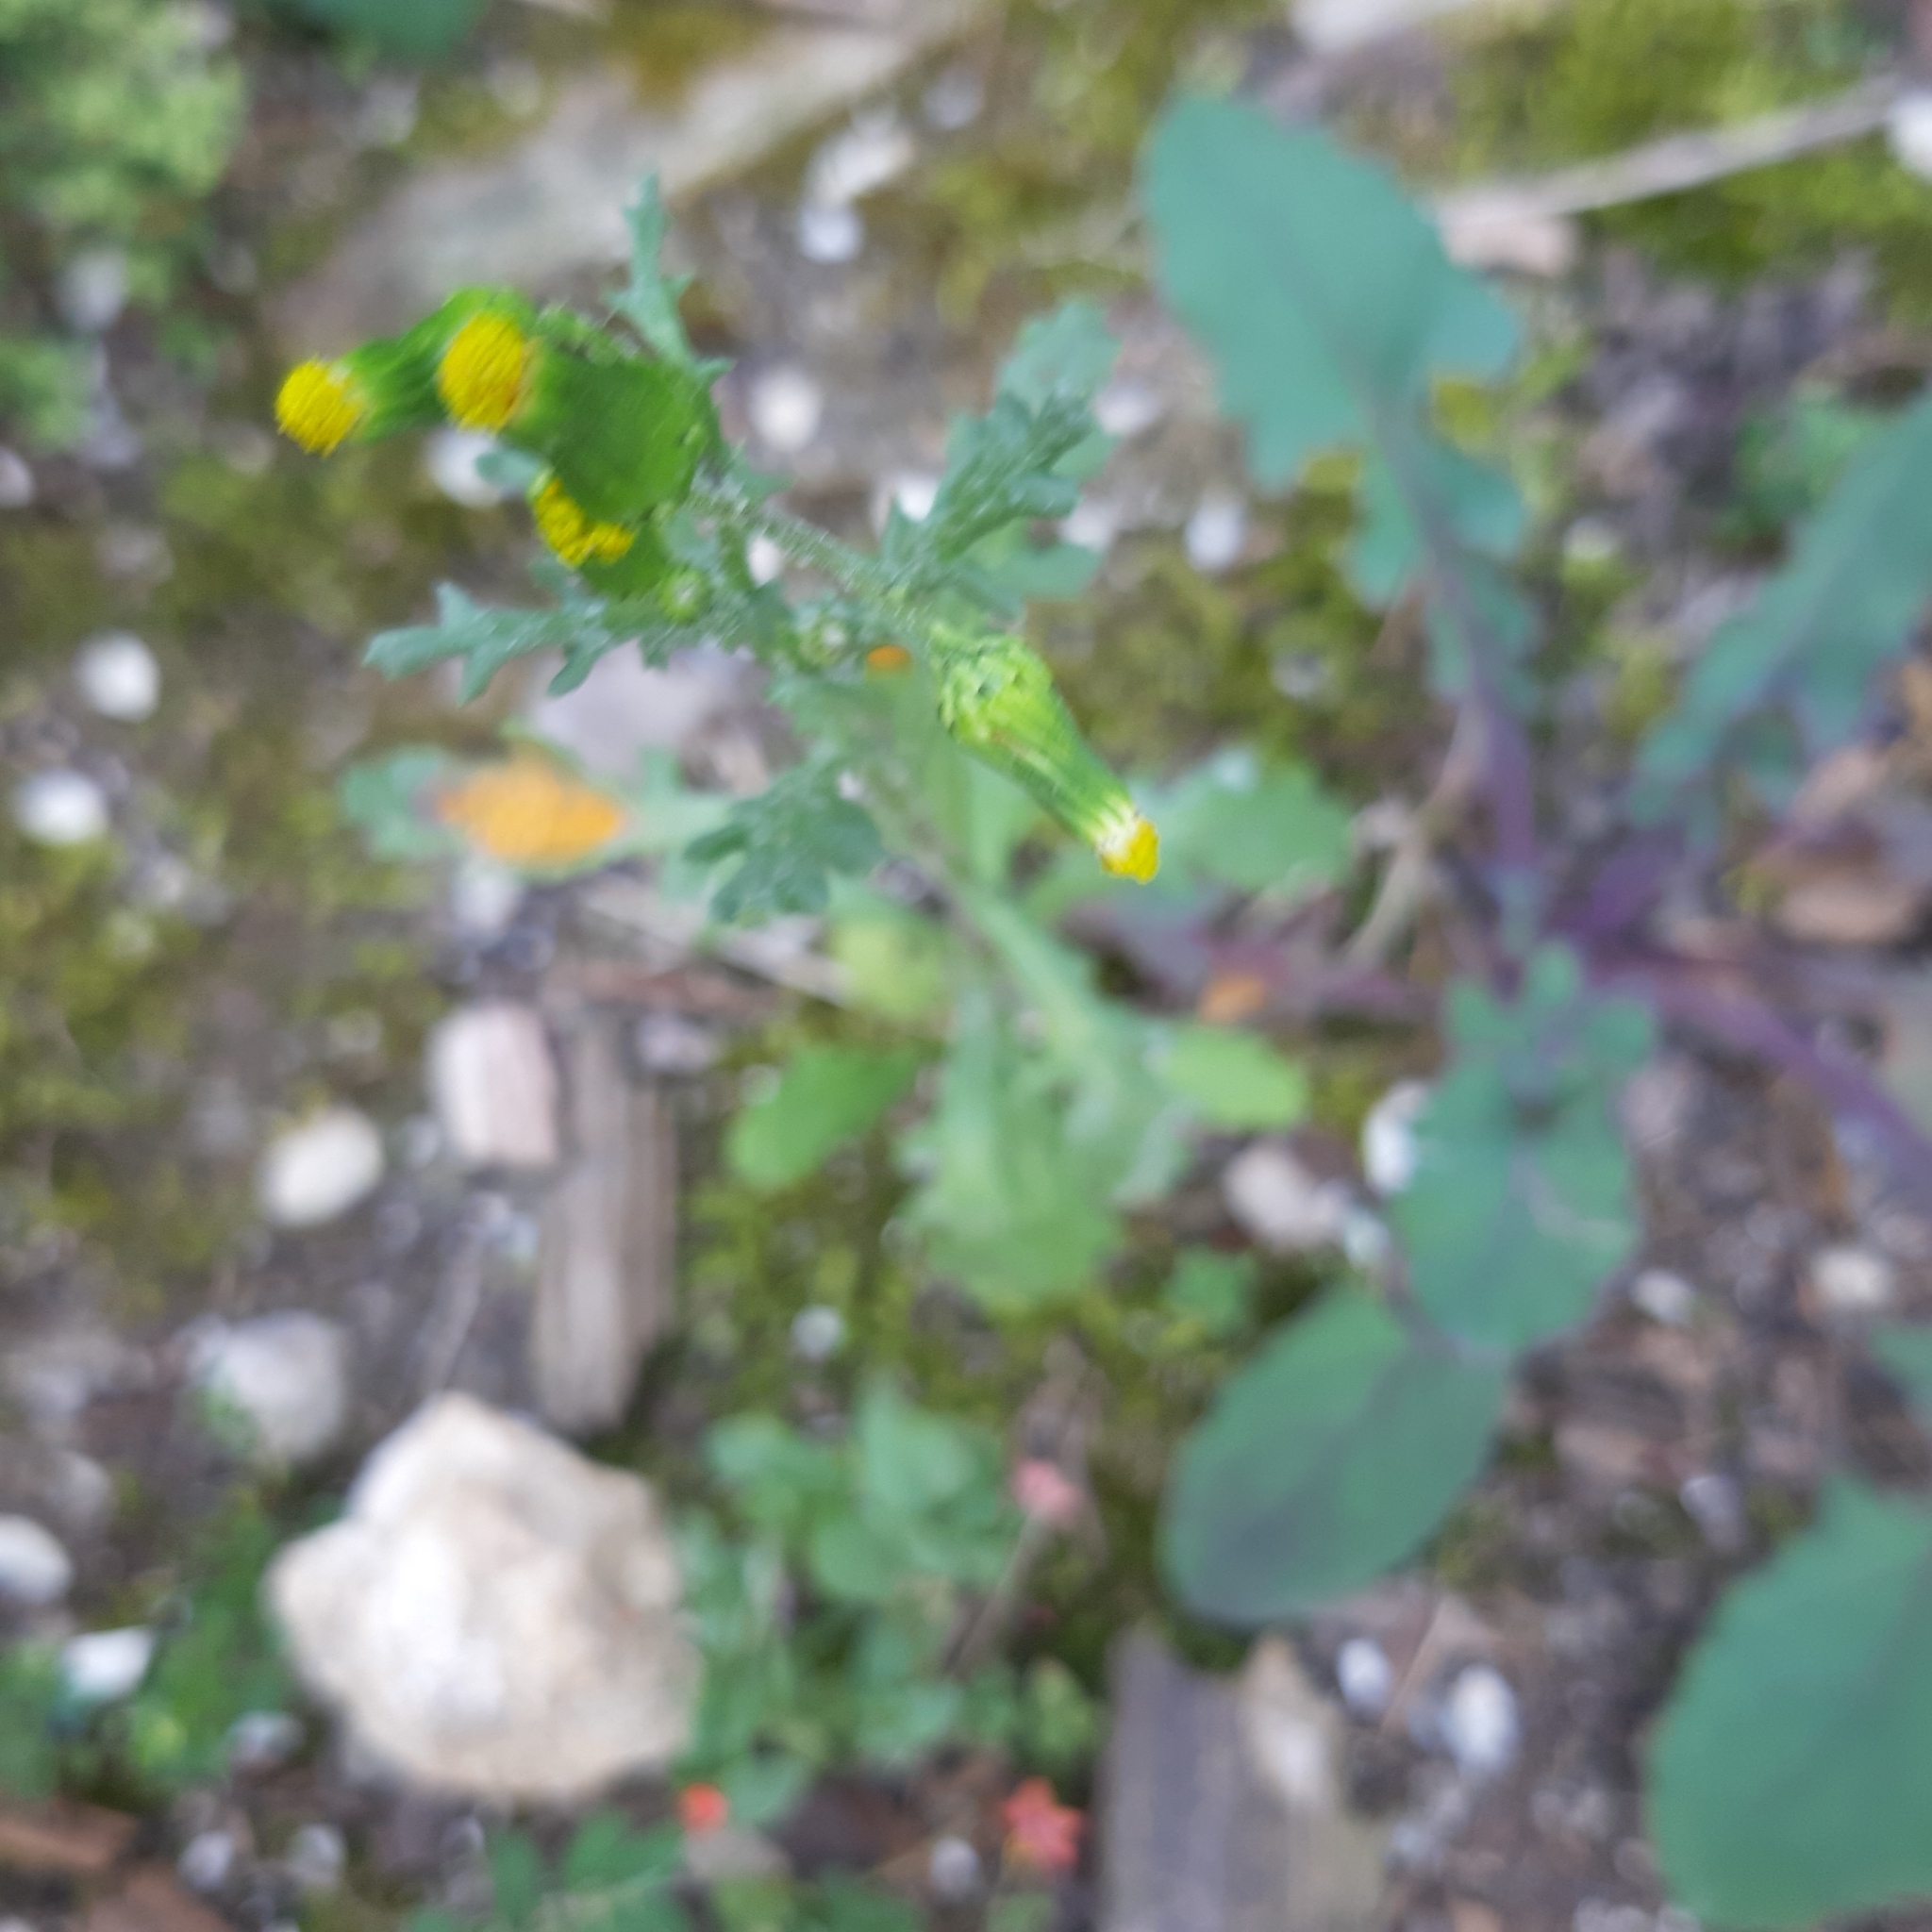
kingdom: Plantae
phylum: Tracheophyta
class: Magnoliopsida
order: Asterales
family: Asteraceae
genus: Senecio
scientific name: Senecio vulgaris
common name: Old-man-in-the-spring
